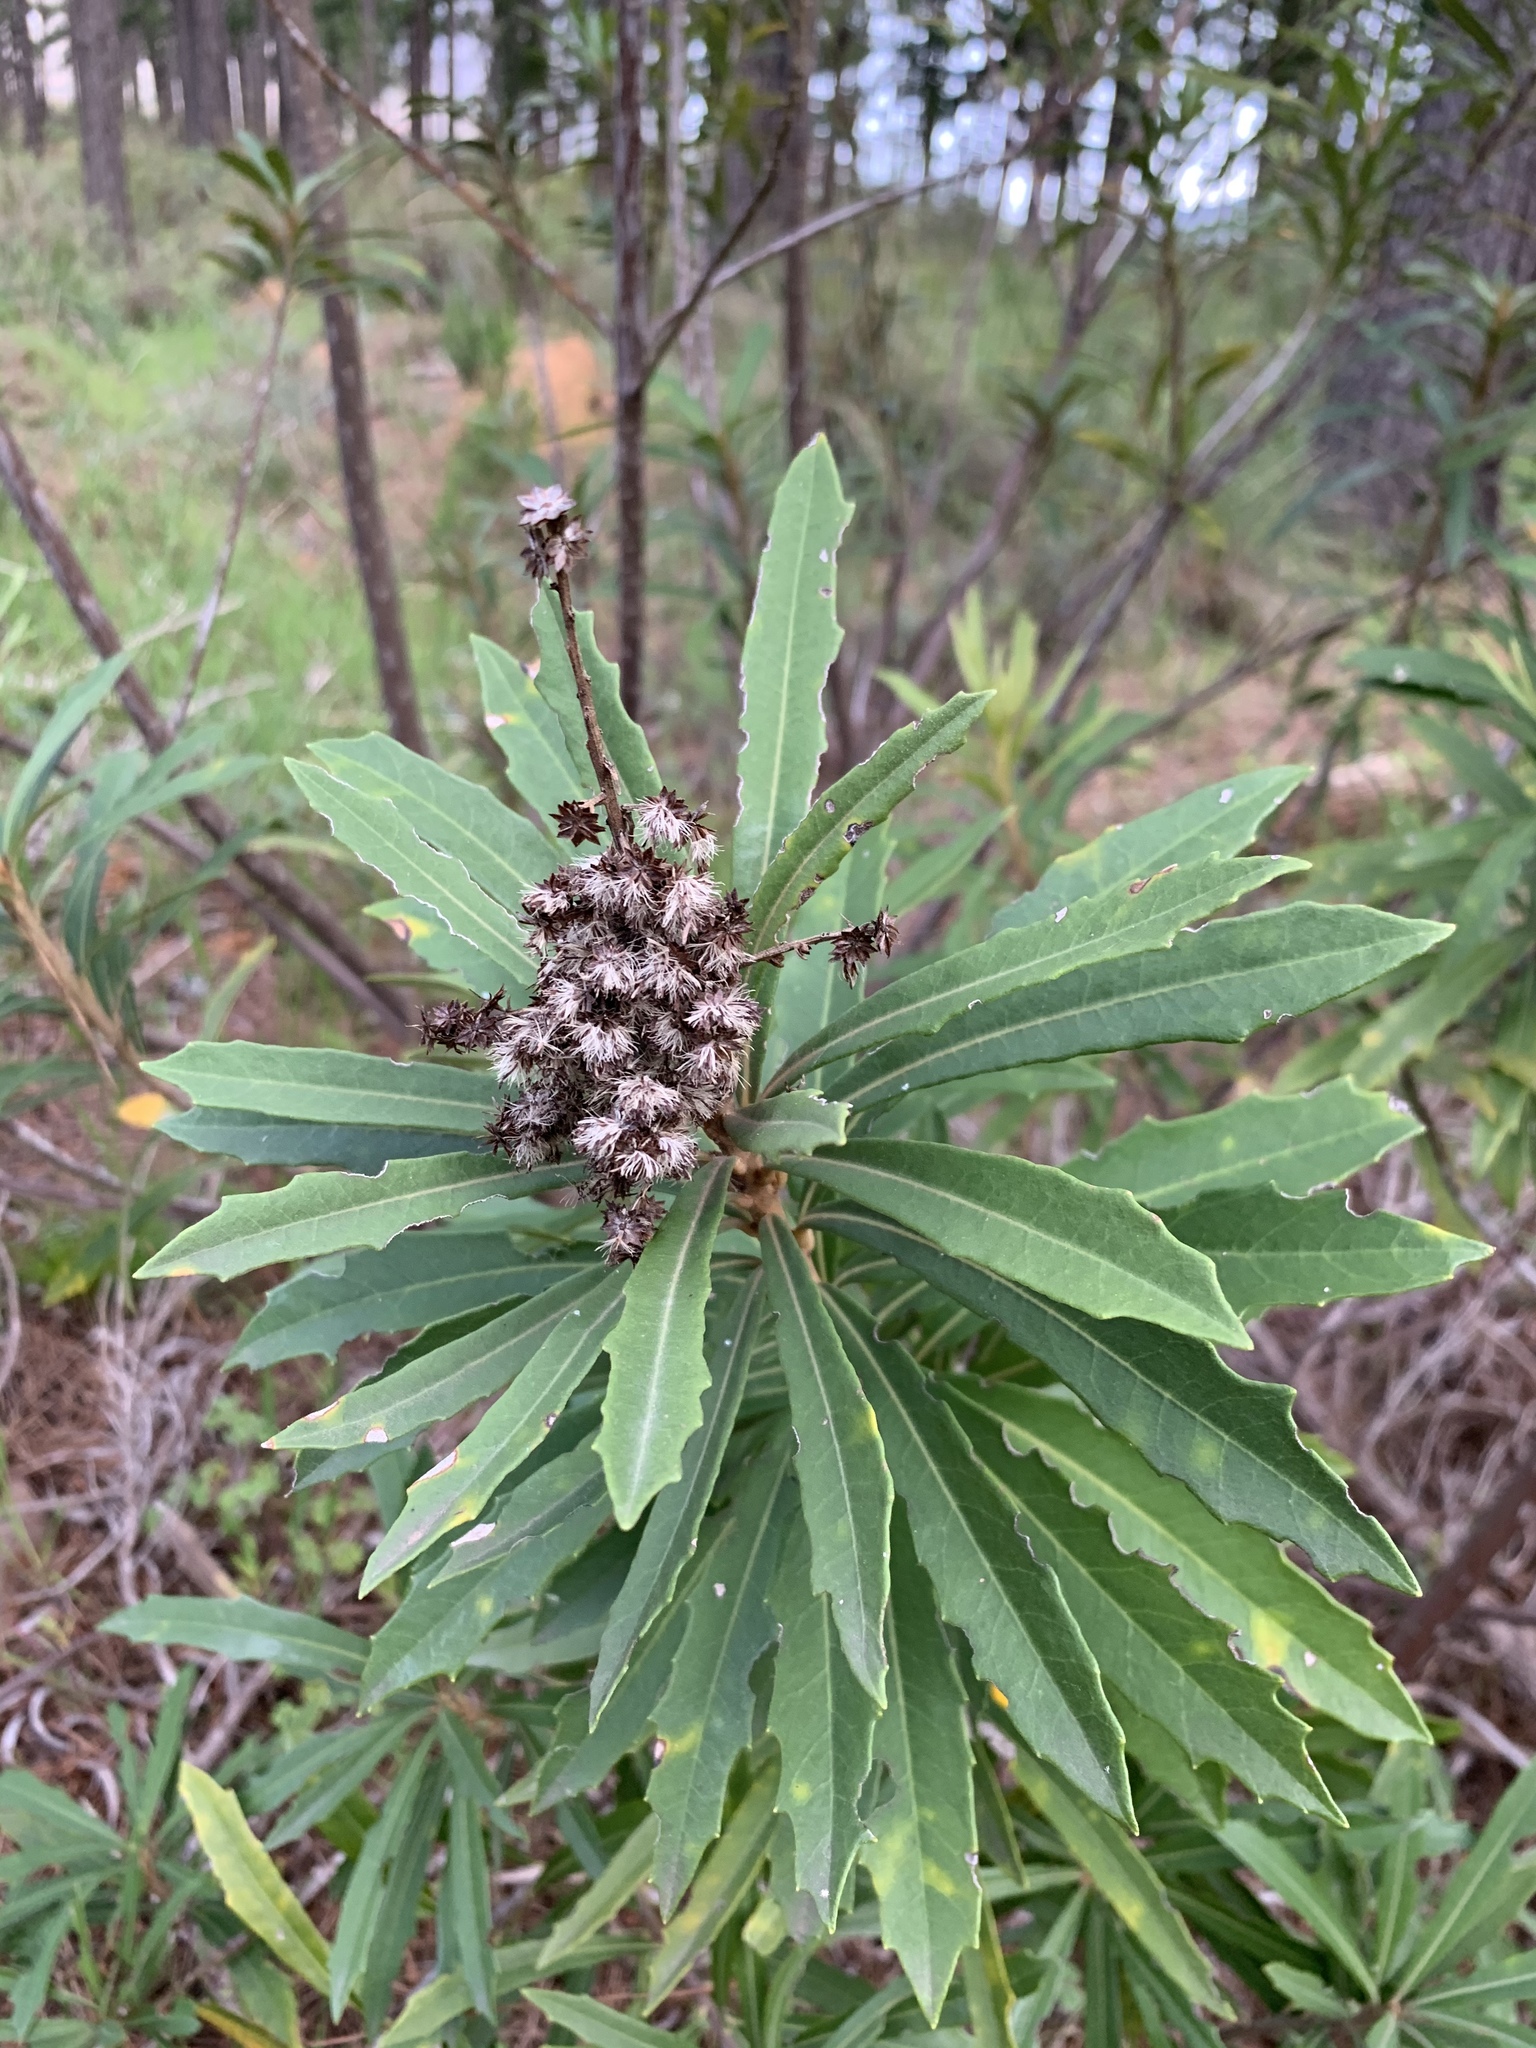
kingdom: Plantae
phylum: Tracheophyta
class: Magnoliopsida
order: Asterales
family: Asteraceae
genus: Brachylaena
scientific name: Brachylaena neriifolia
